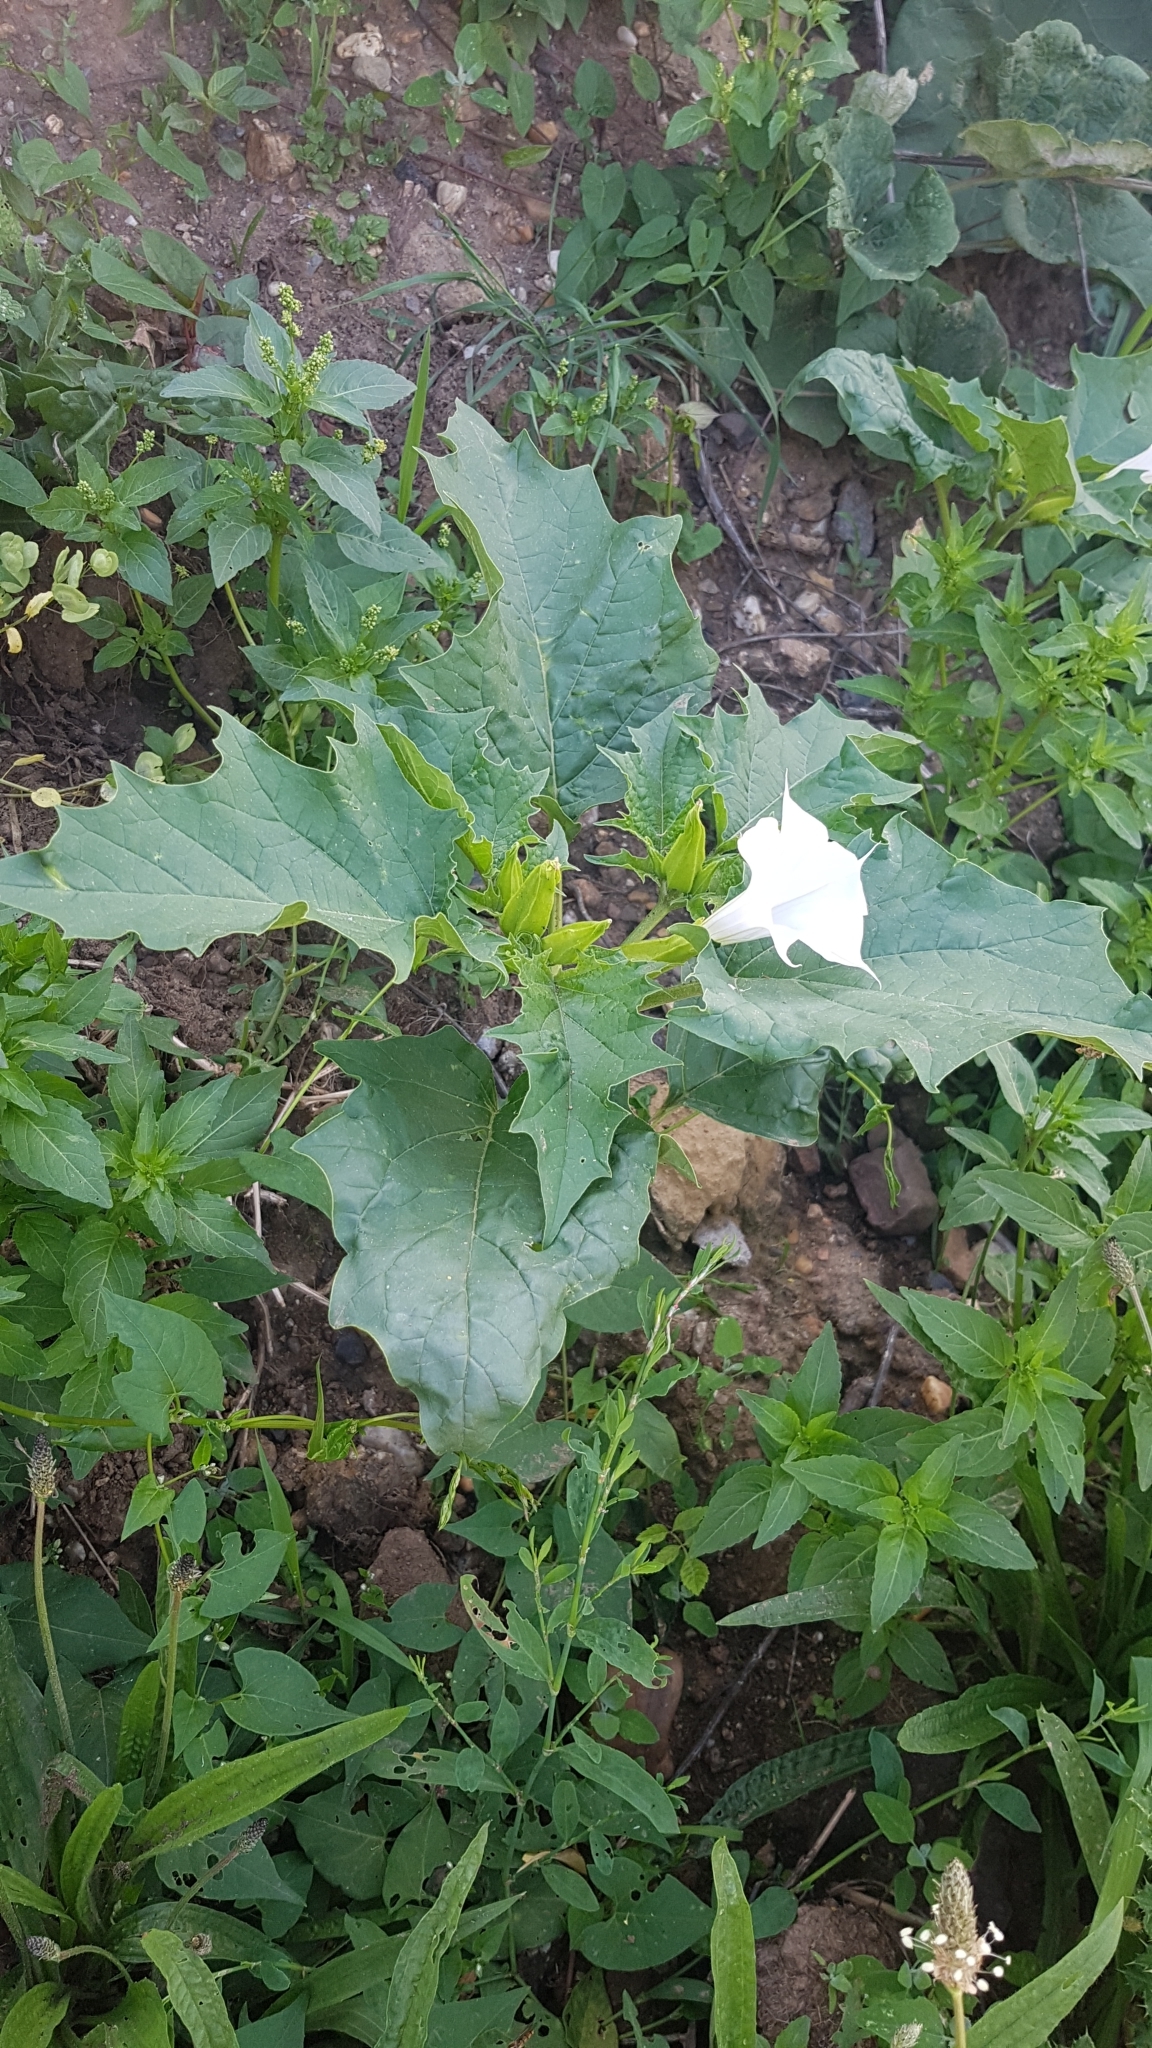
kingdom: Plantae
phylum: Tracheophyta
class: Magnoliopsida
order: Solanales
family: Solanaceae
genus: Datura
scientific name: Datura stramonium
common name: Thorn-apple
